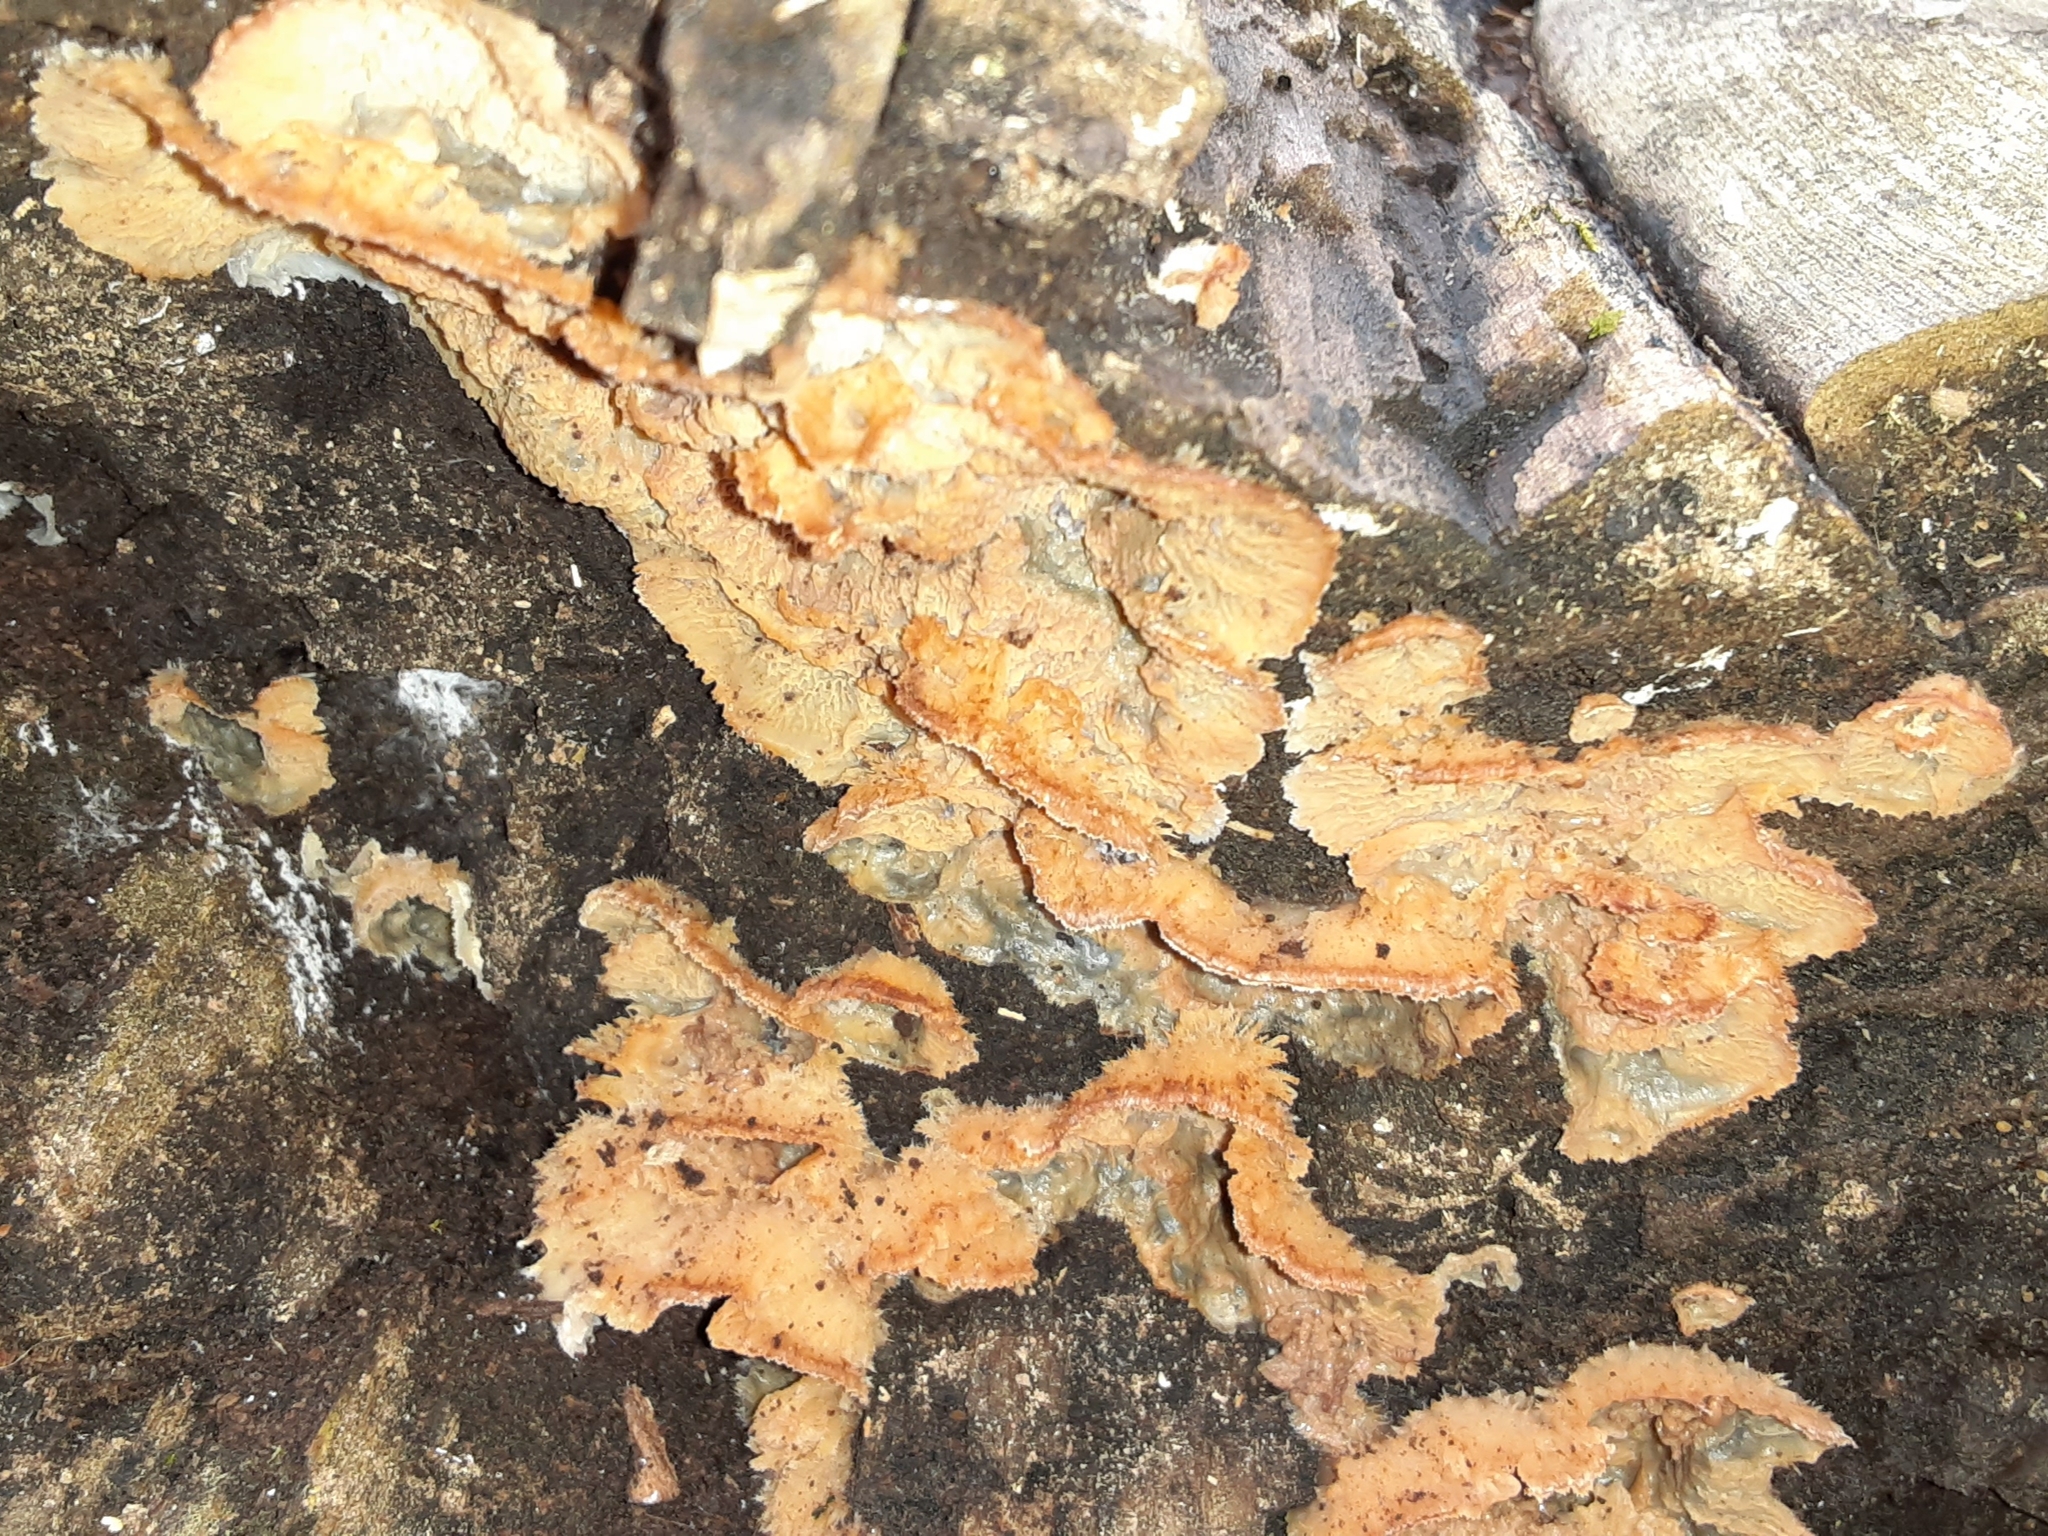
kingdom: Fungi
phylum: Basidiomycota
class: Agaricomycetes
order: Polyporales
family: Meruliaceae
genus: Phlebia
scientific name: Phlebia tremellosa
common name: Jelly rot
